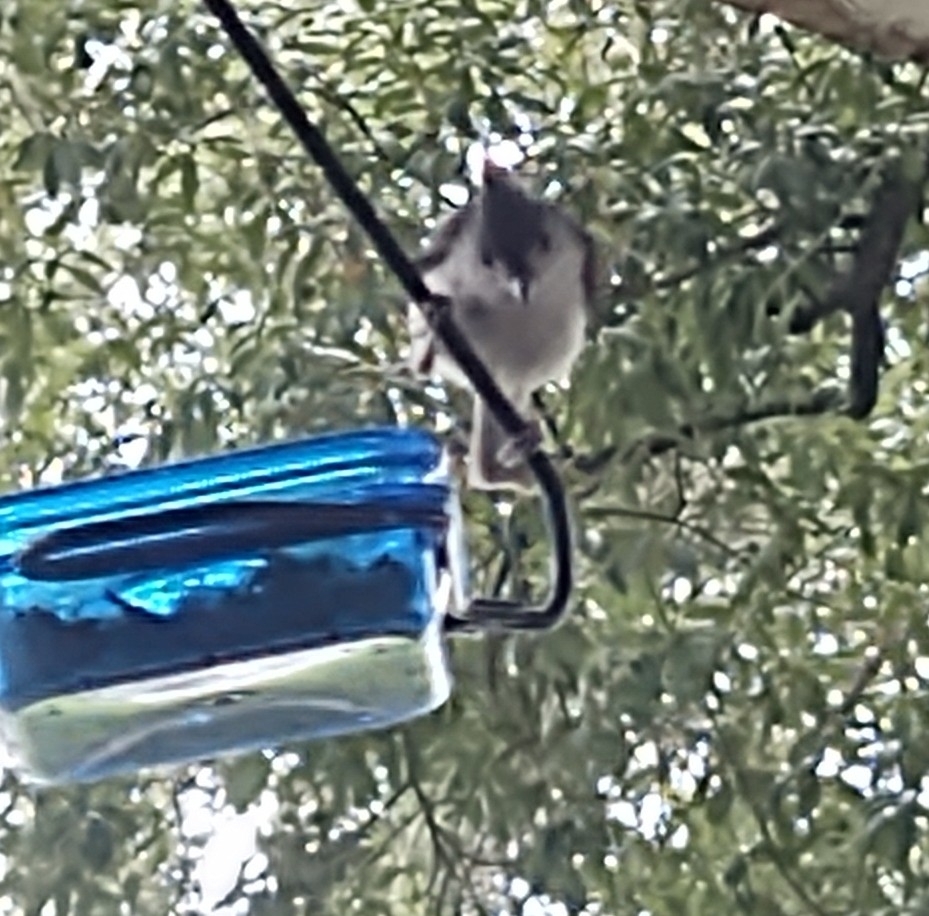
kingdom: Animalia
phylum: Chordata
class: Aves
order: Passeriformes
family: Paridae
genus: Baeolophus
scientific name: Baeolophus bicolor
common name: Tufted titmouse
